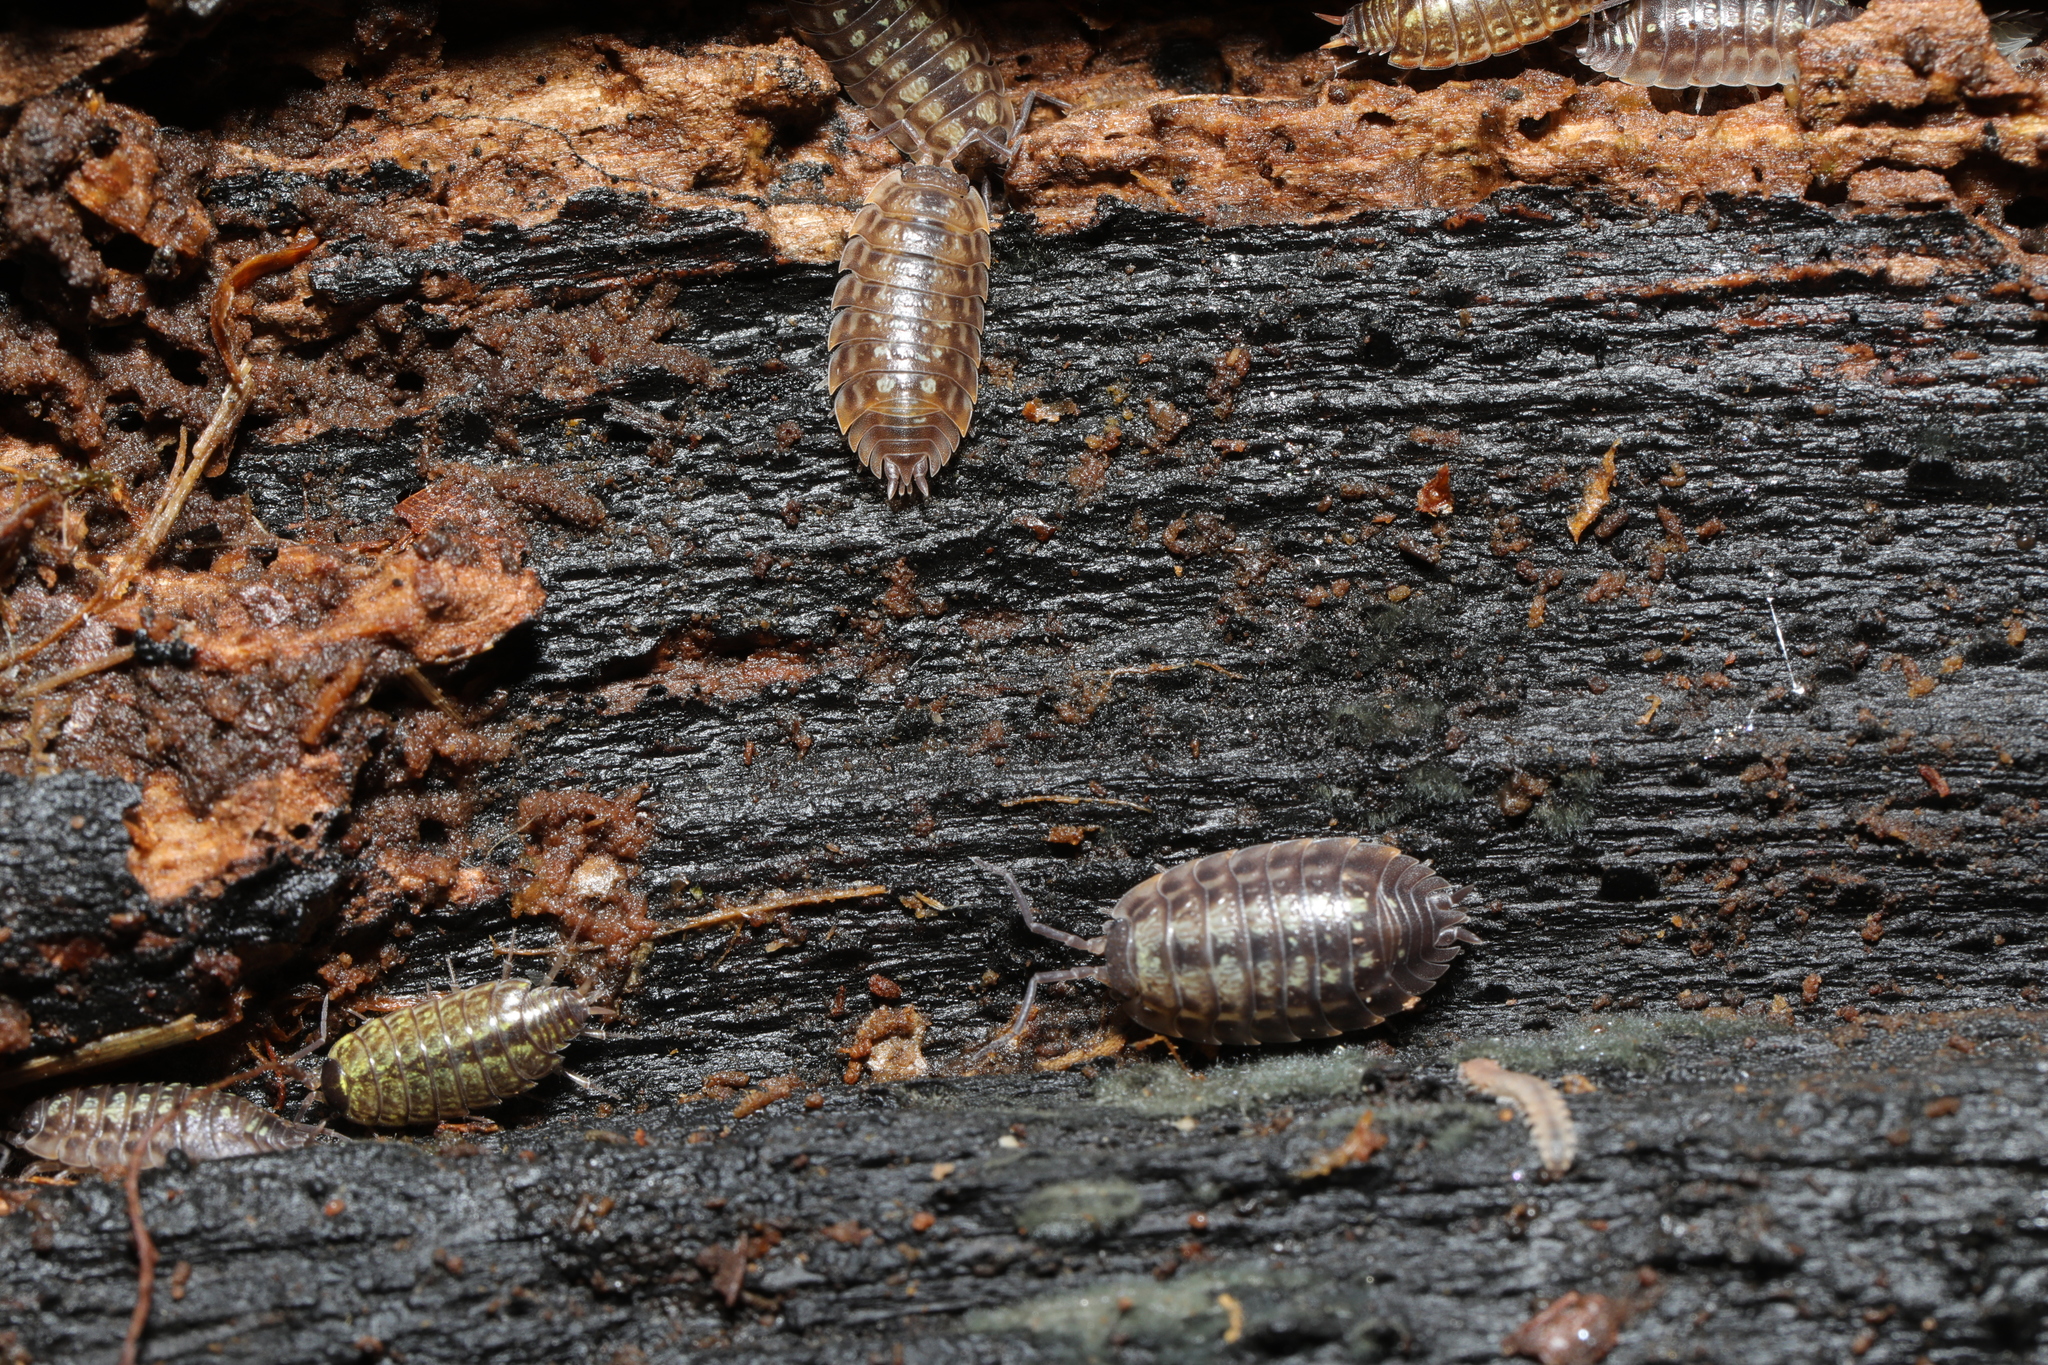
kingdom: Animalia
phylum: Arthropoda
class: Malacostraca
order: Isopoda
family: Oniscidae
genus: Oniscus
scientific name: Oniscus asellus
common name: Common shiny woodlouse
